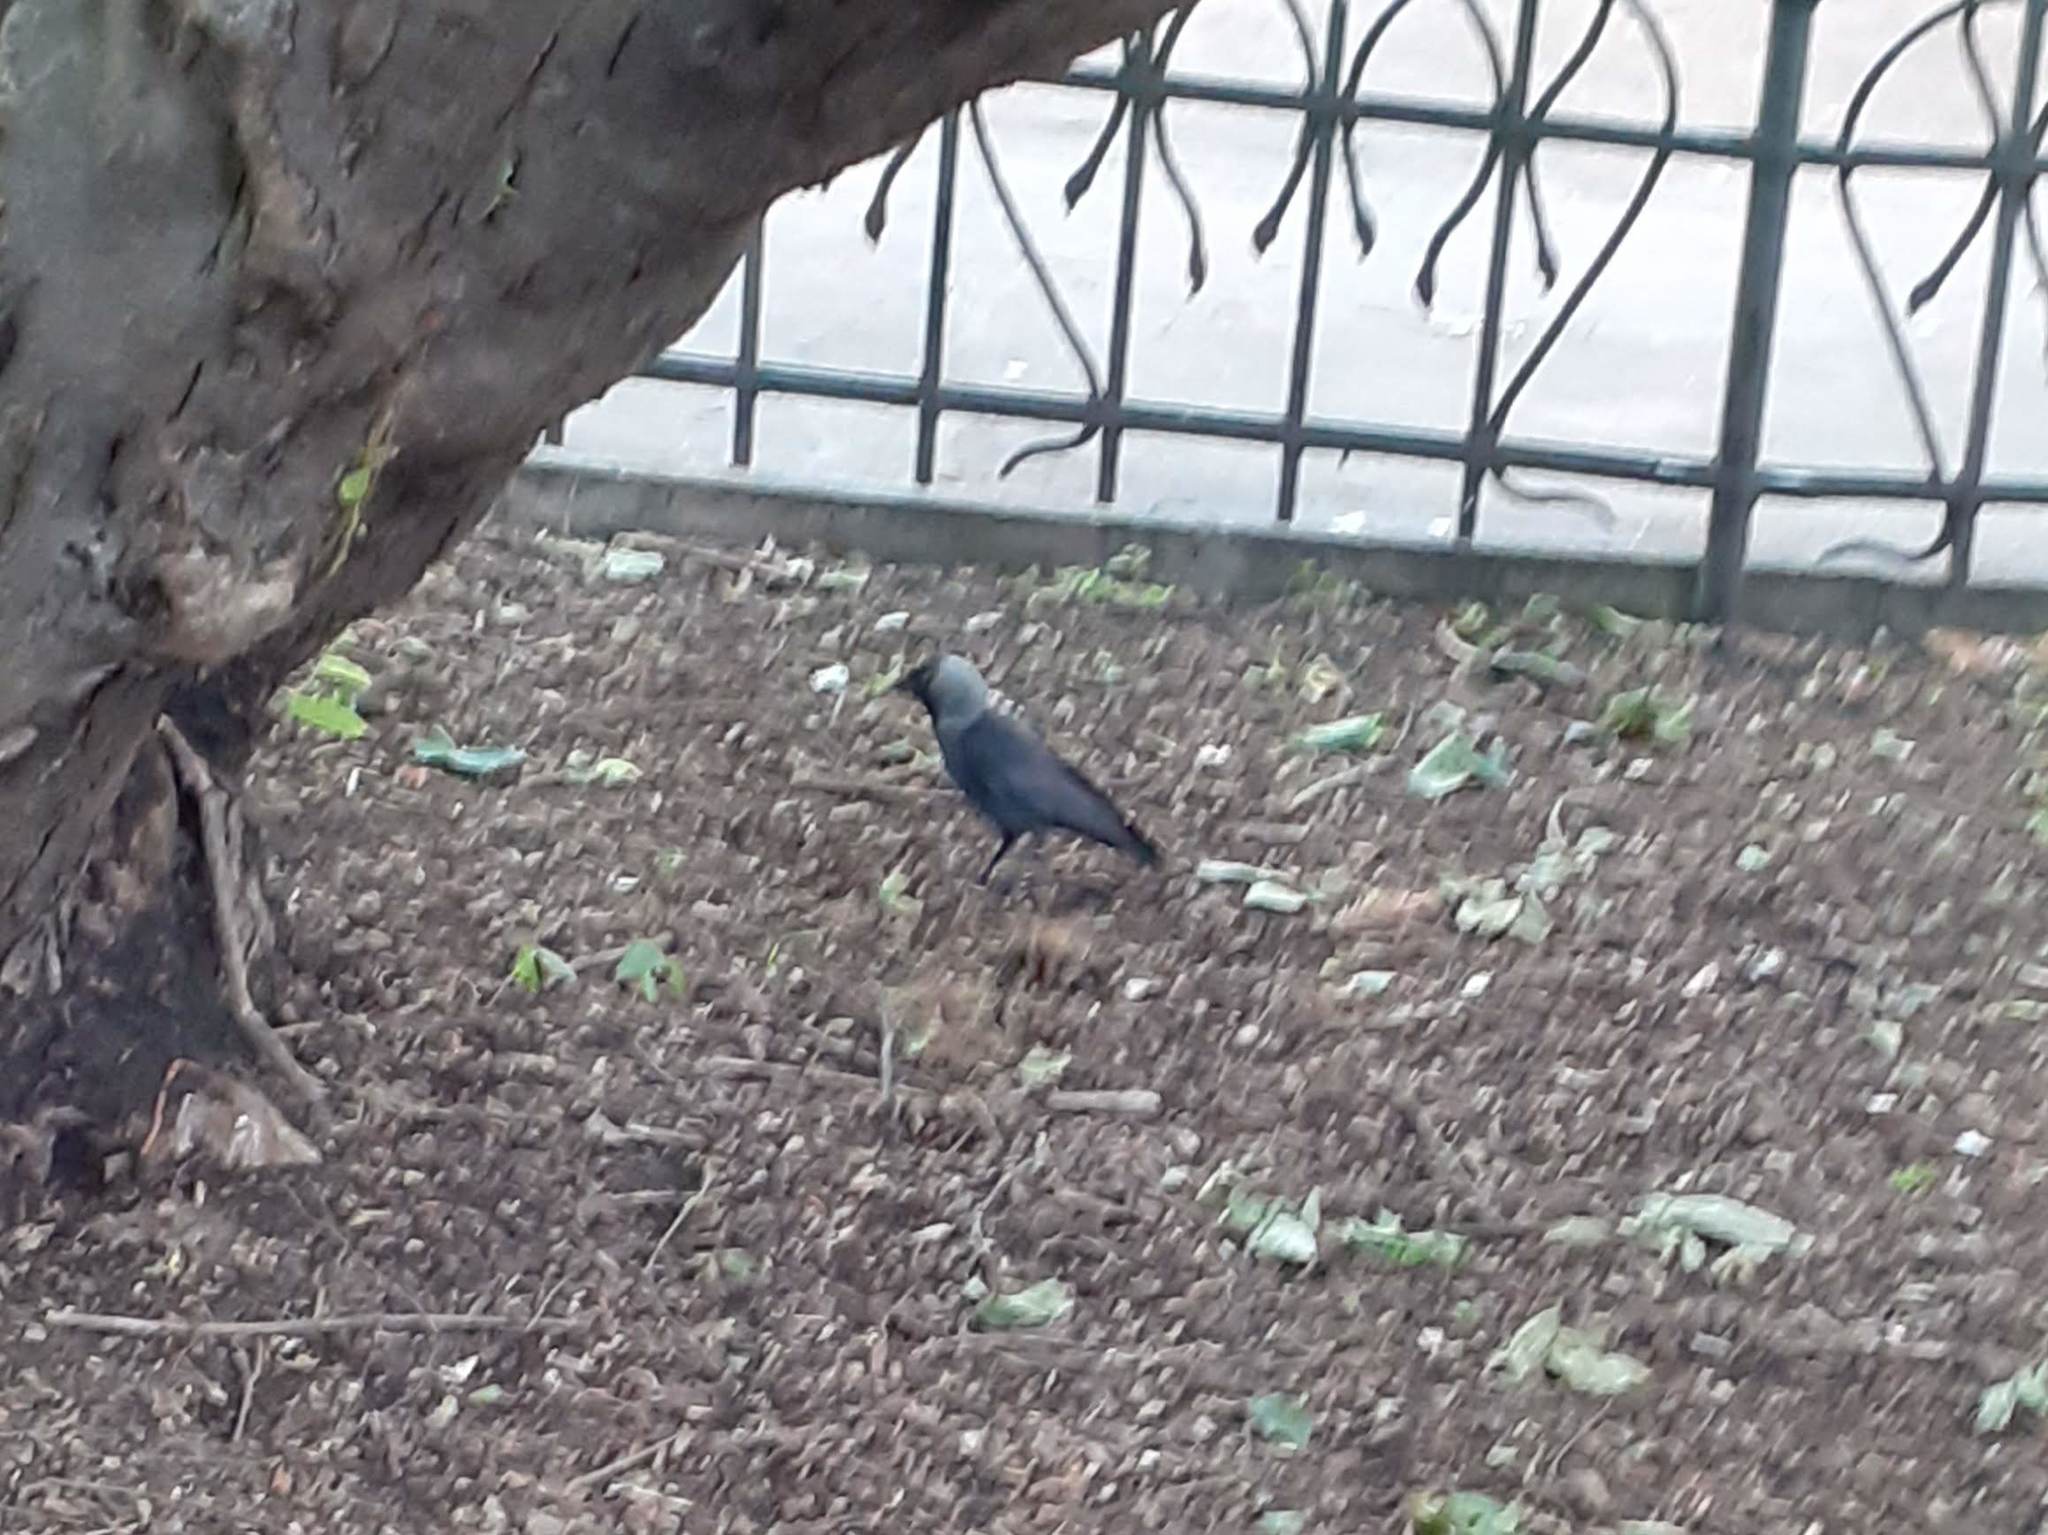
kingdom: Animalia
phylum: Chordata
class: Aves
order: Passeriformes
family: Corvidae
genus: Coloeus
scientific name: Coloeus monedula
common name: Western jackdaw
